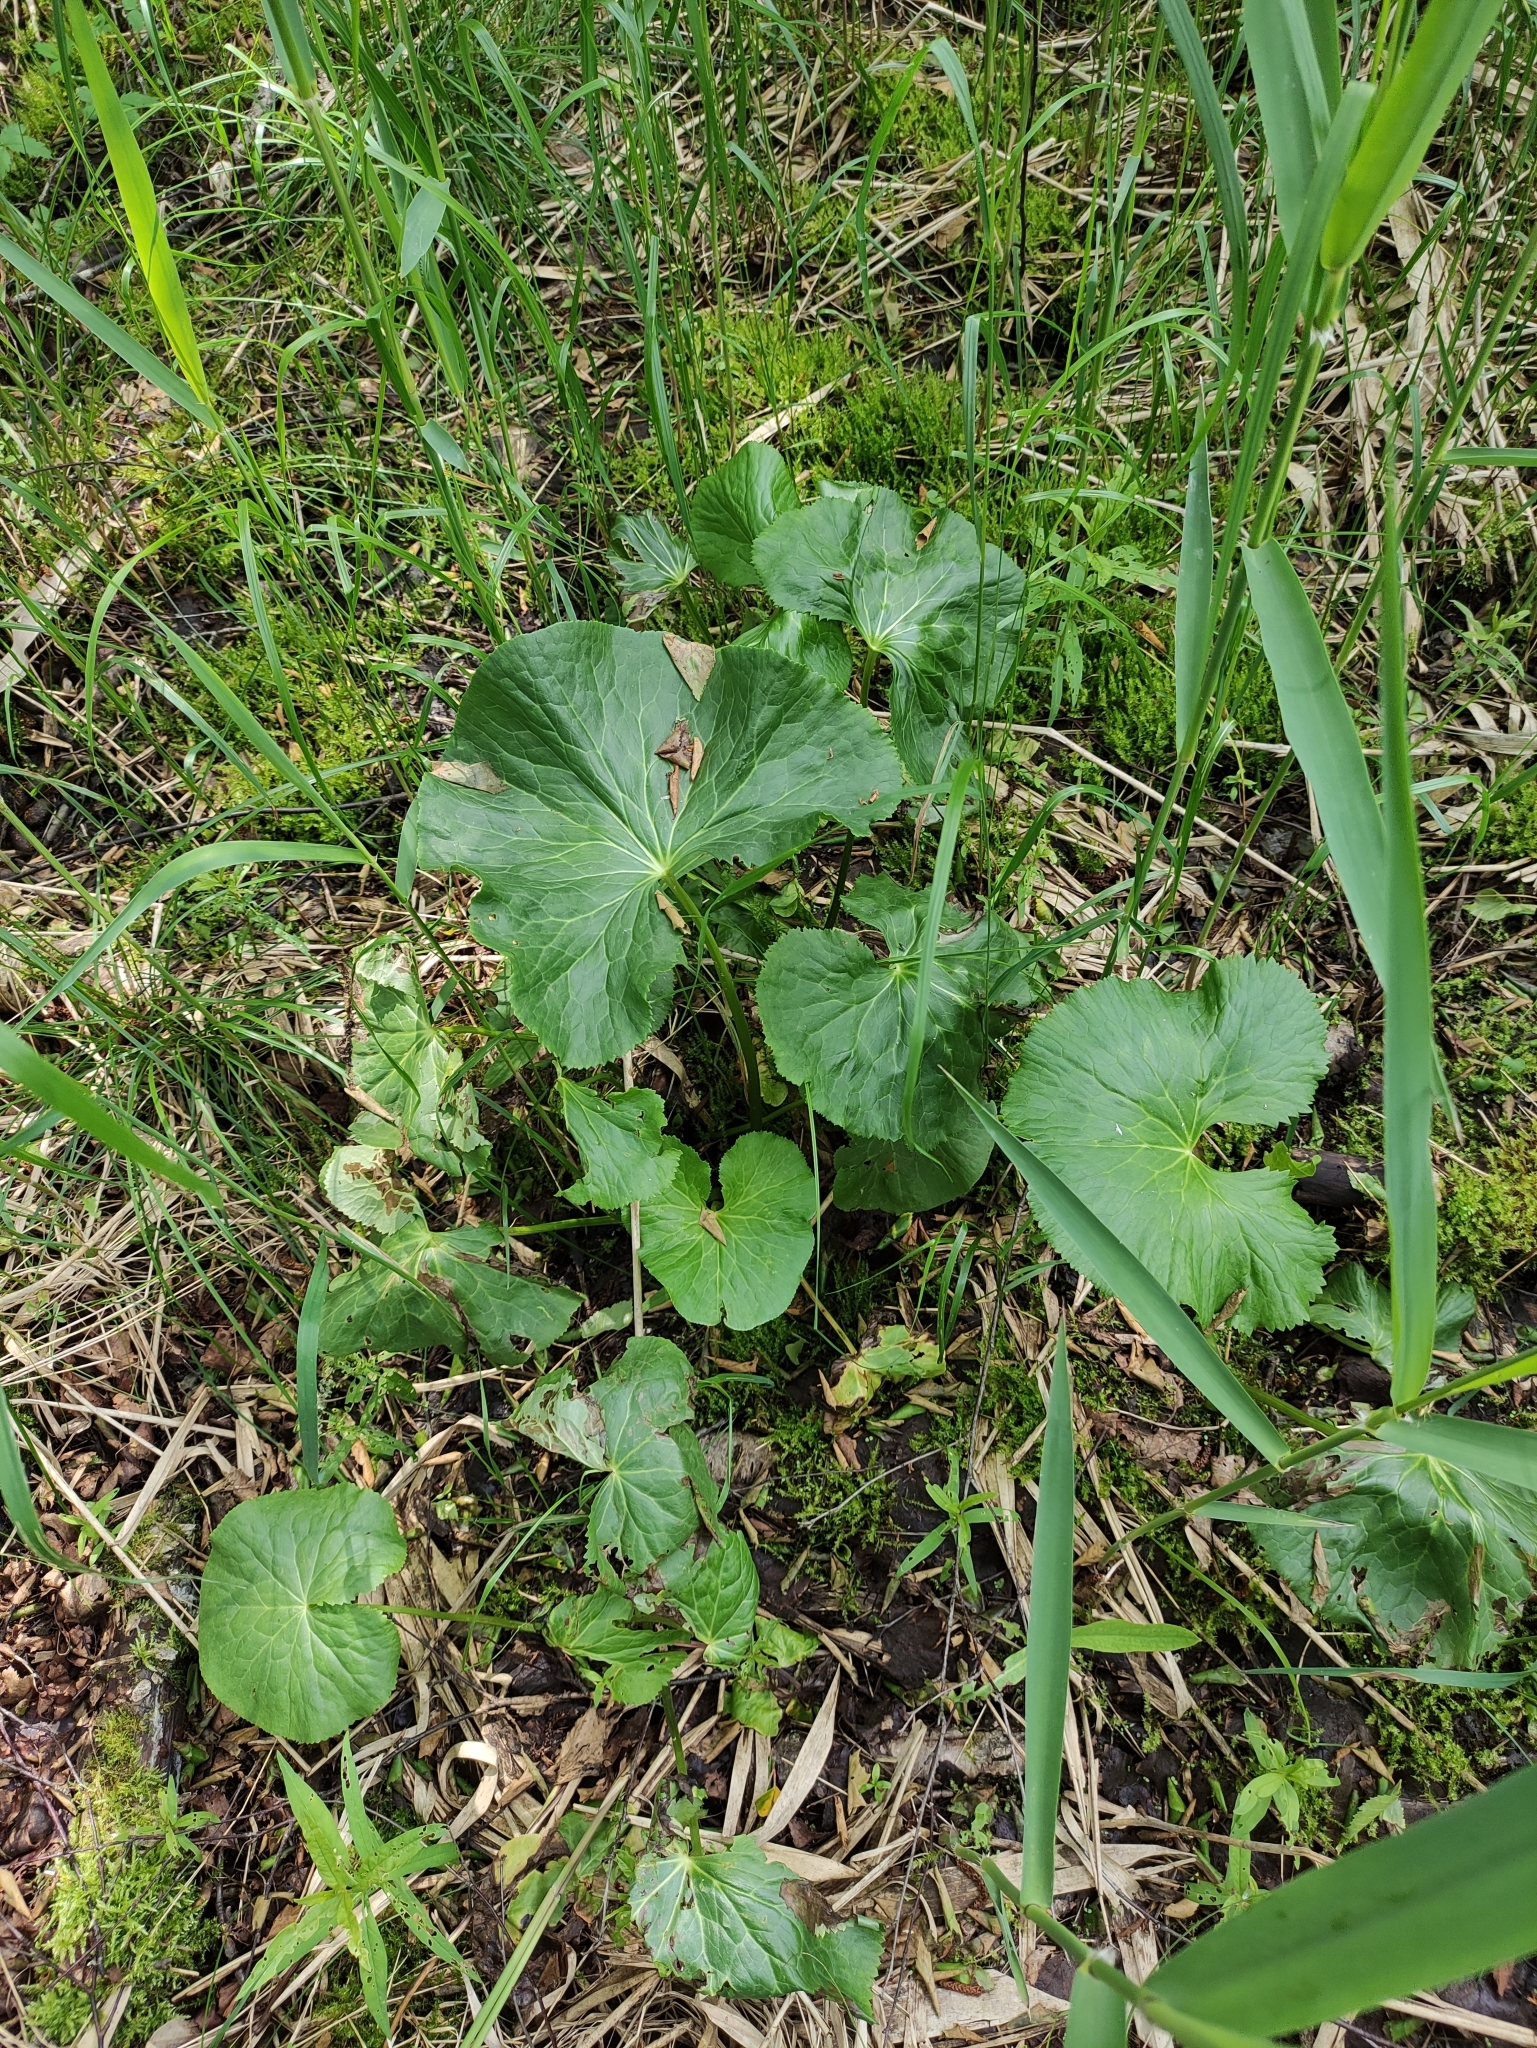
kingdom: Plantae
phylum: Tracheophyta
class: Magnoliopsida
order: Ranunculales
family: Ranunculaceae
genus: Caltha
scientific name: Caltha palustris
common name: Marsh marigold
